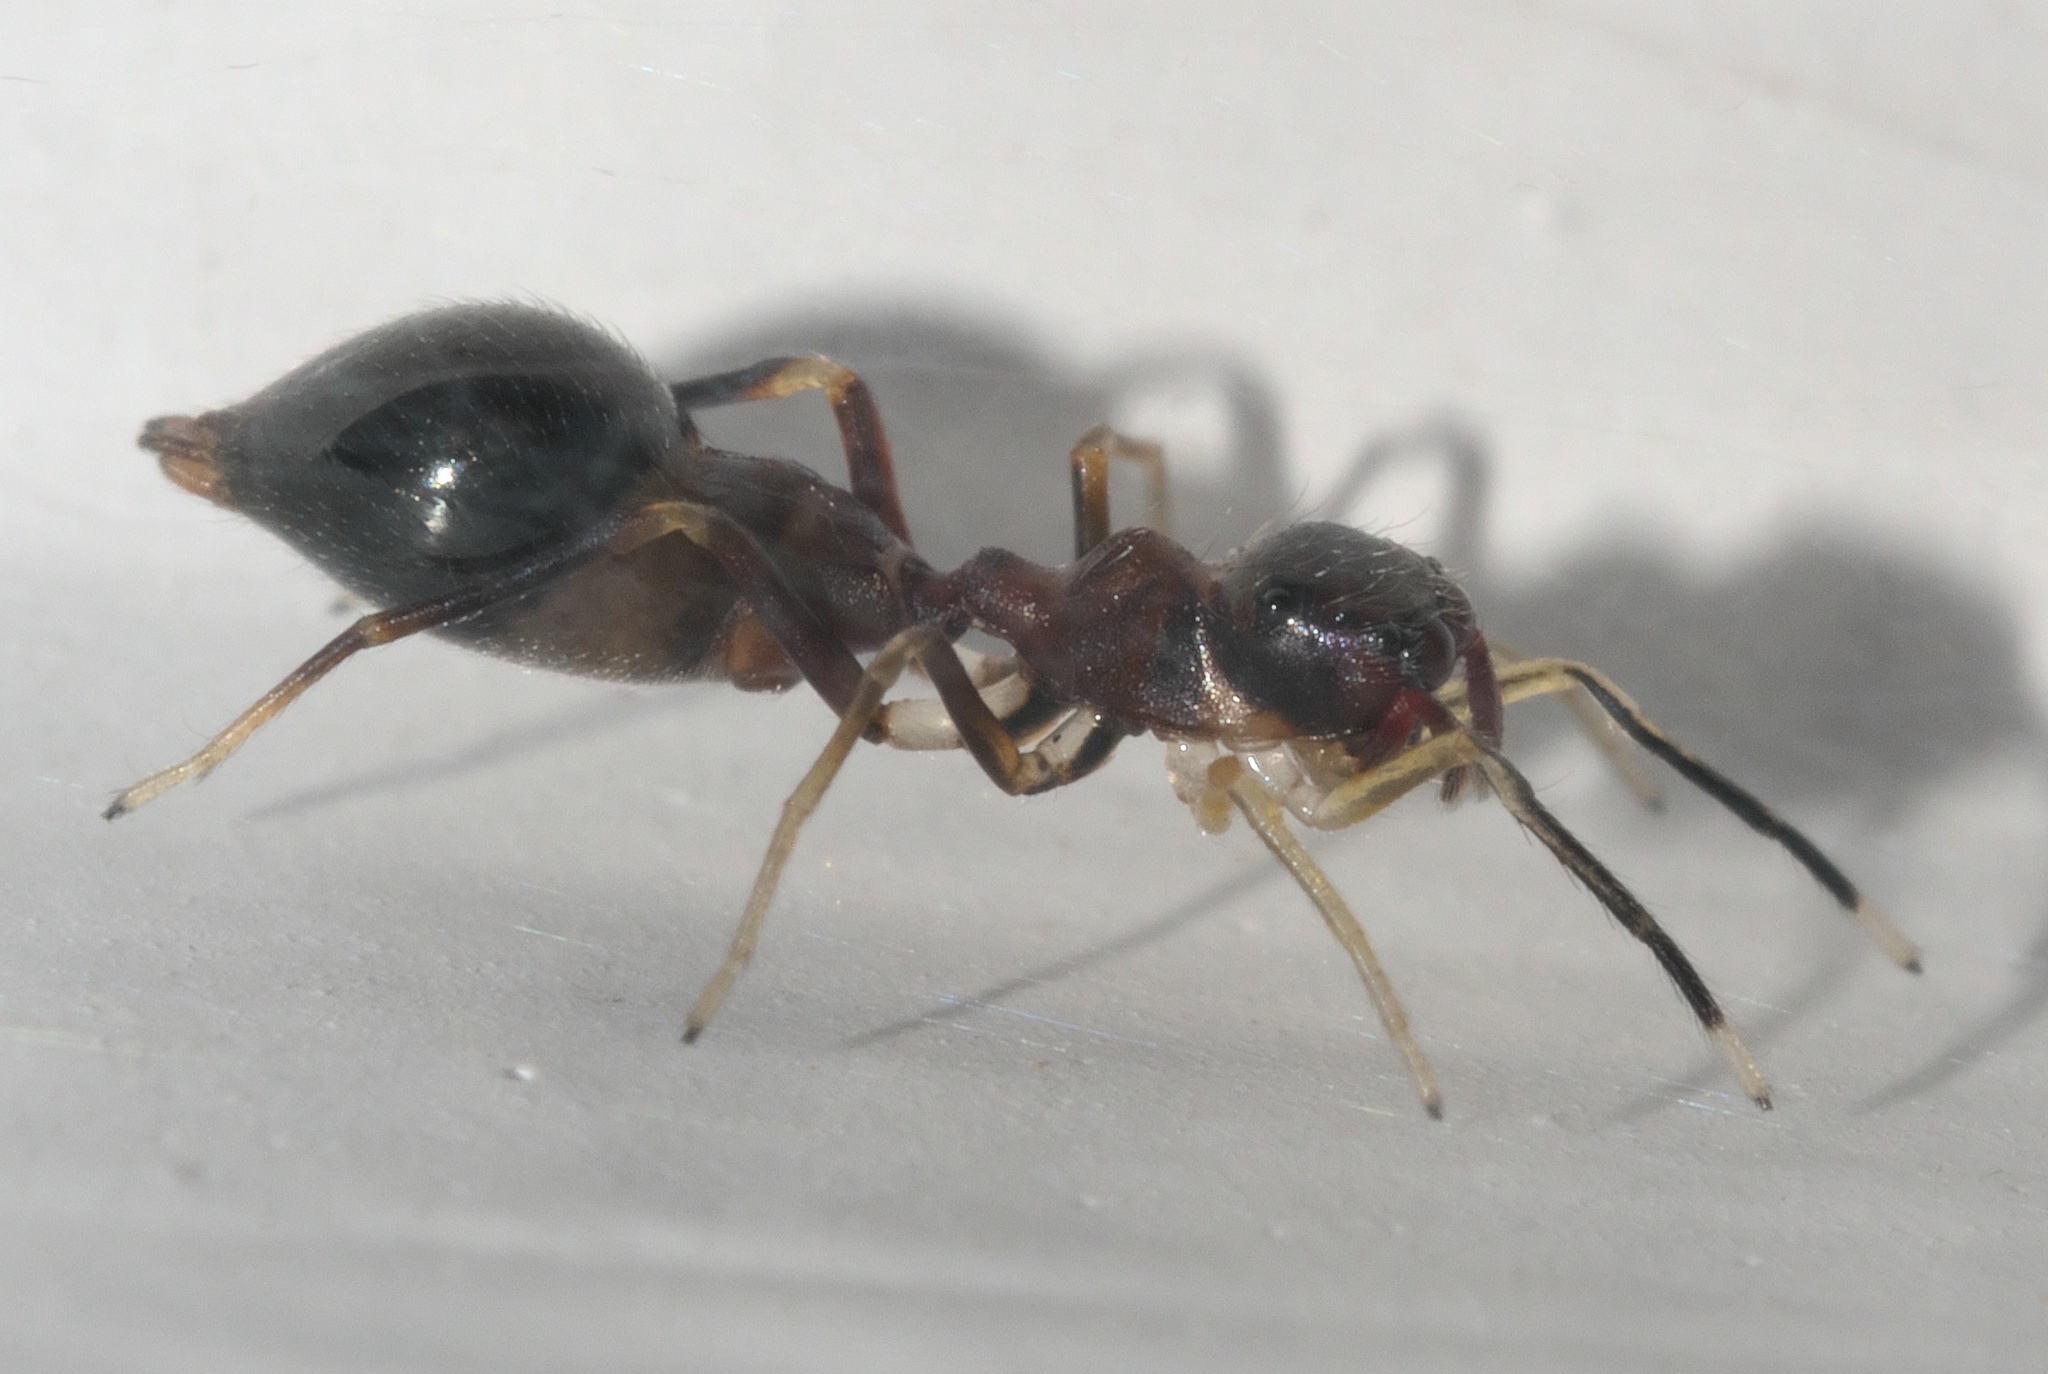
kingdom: Animalia
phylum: Arthropoda
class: Arachnida
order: Araneae
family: Salticidae
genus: Synemosyna
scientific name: Synemosyna formica
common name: Slender ant-mimic jumping spider
